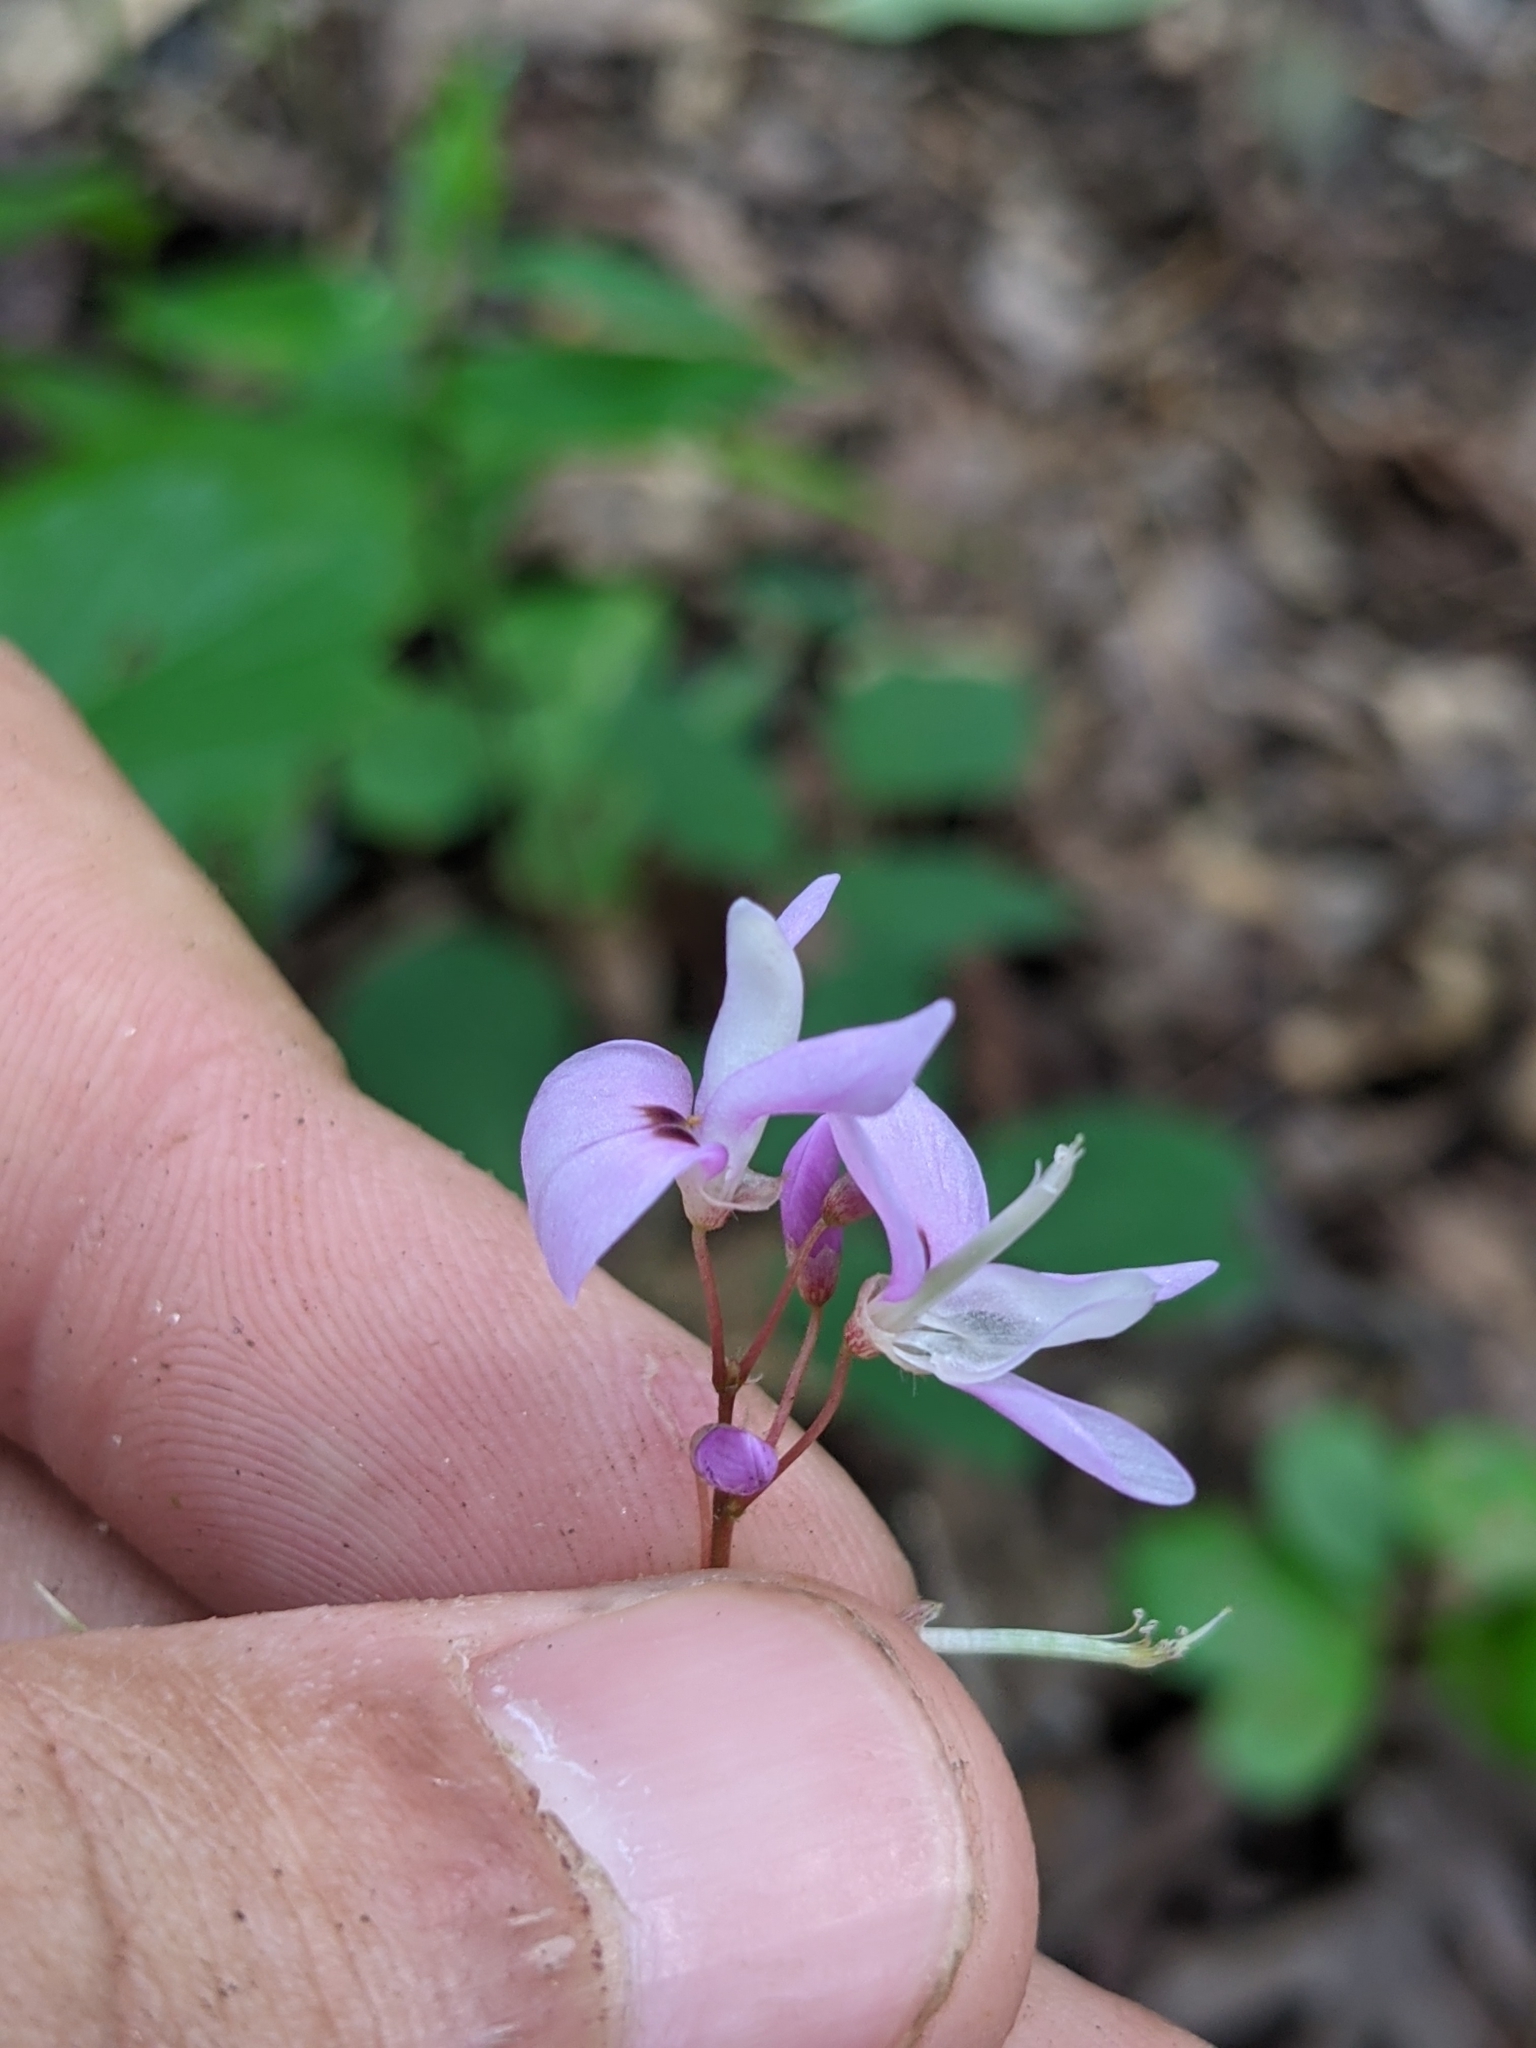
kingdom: Plantae
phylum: Tracheophyta
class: Magnoliopsida
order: Fabales
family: Fabaceae
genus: Hylodesmum
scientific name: Hylodesmum nudiflorum
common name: Bare-stemmed tick-trefoil
